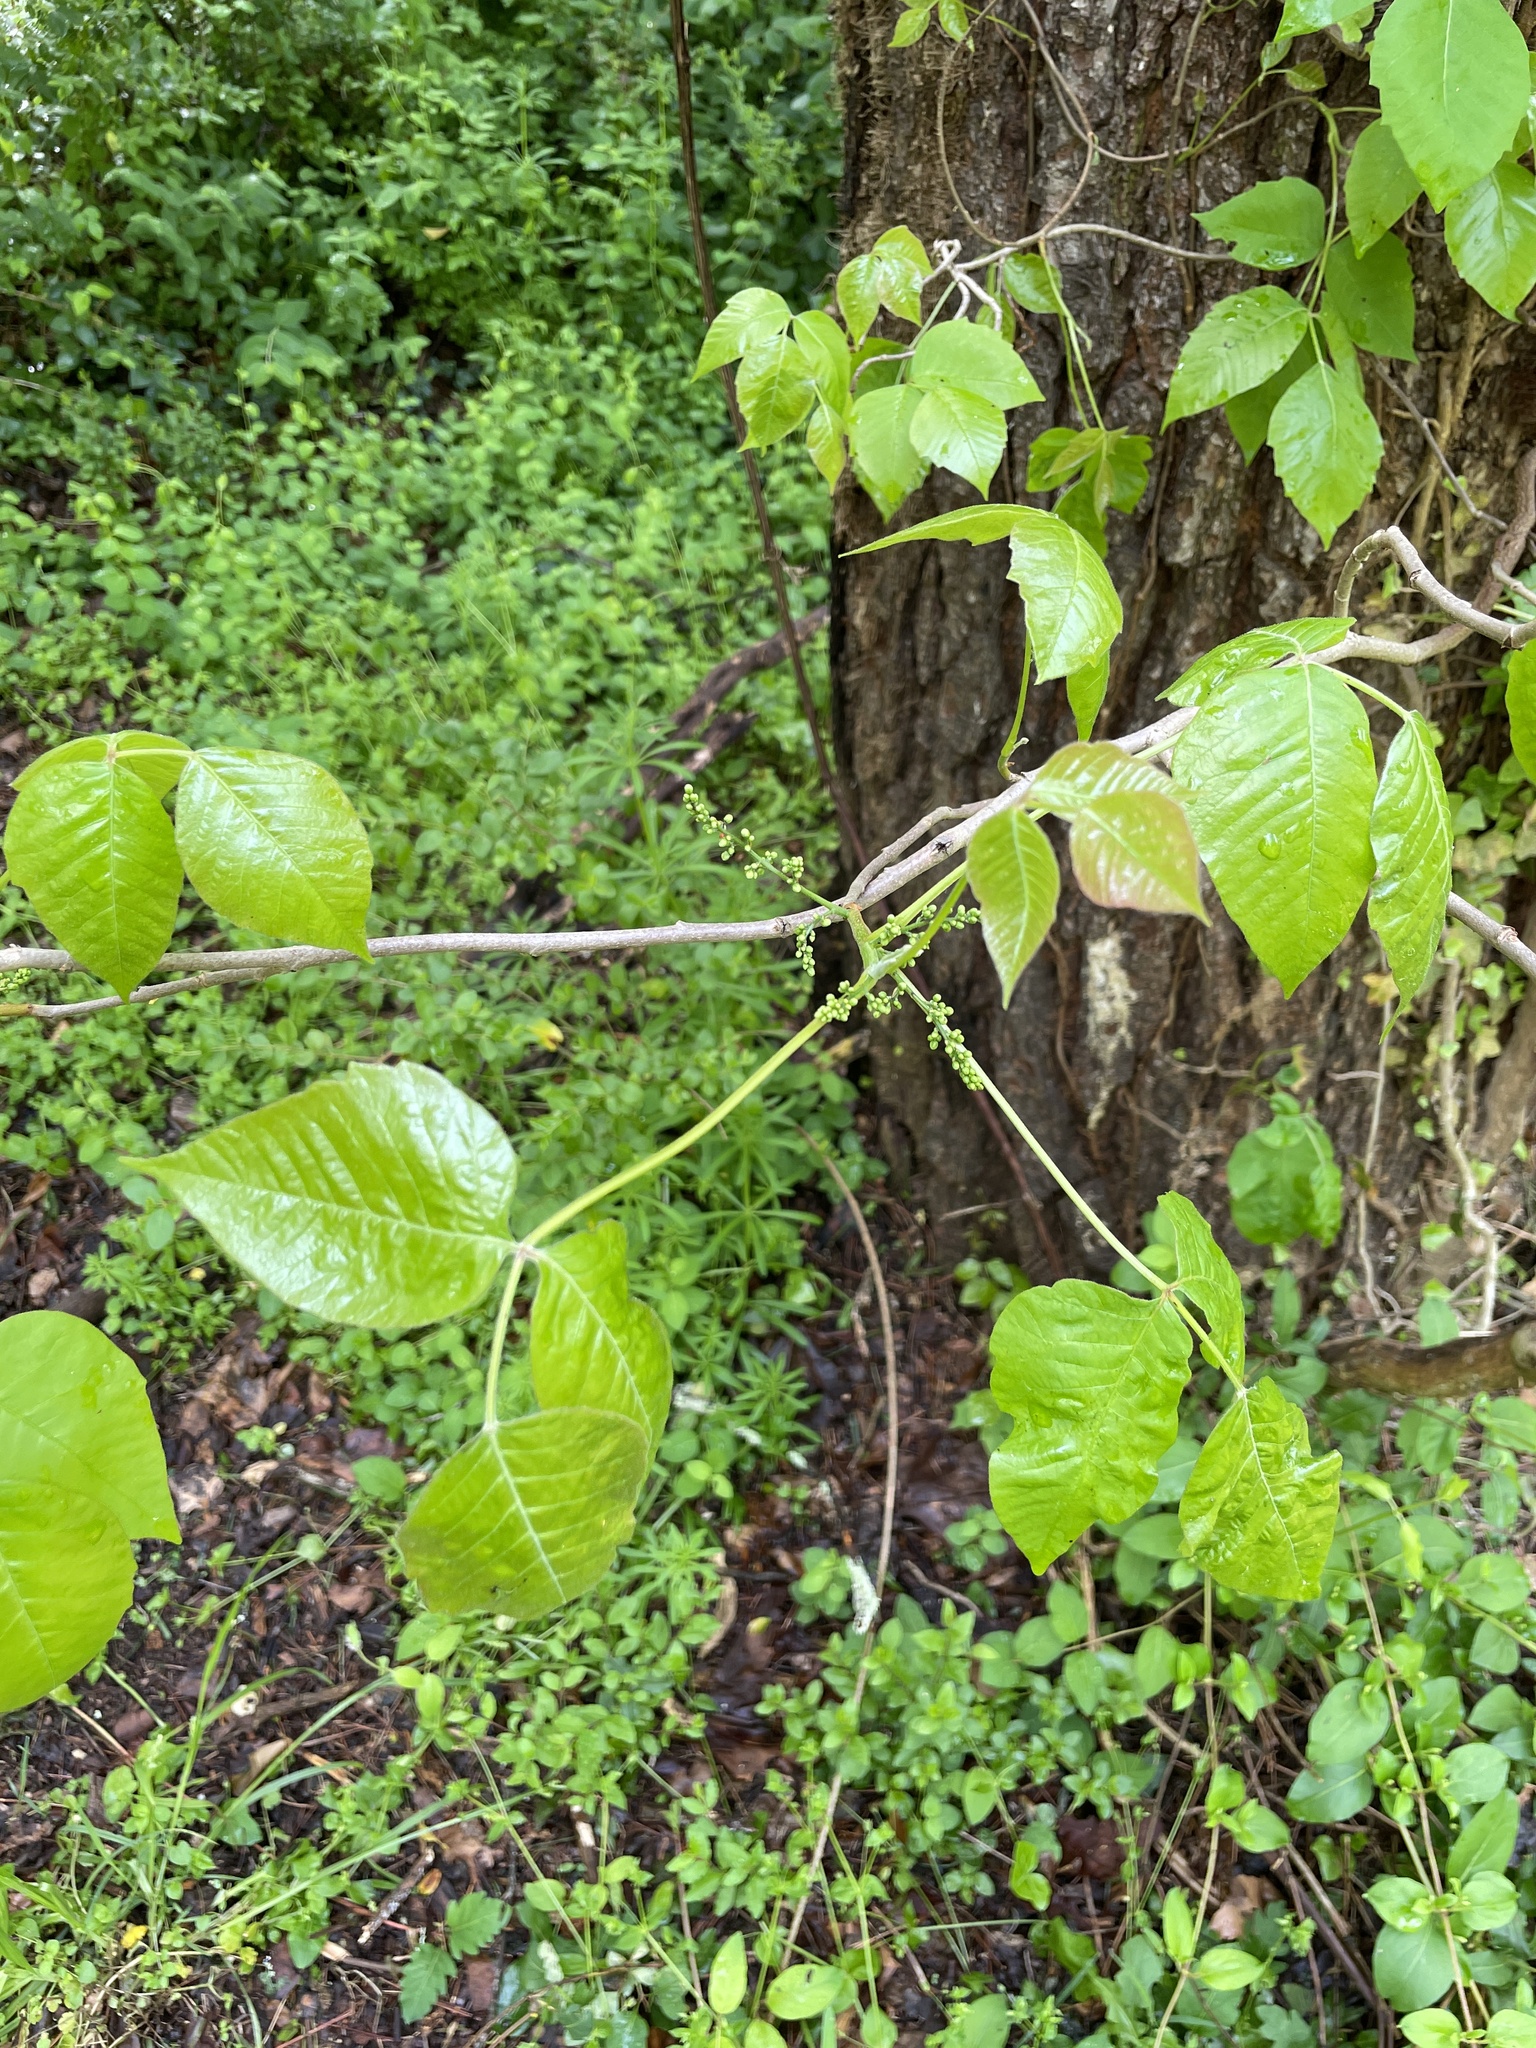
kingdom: Plantae
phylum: Tracheophyta
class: Magnoliopsida
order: Sapindales
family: Anacardiaceae
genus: Toxicodendron
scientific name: Toxicodendron radicans
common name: Poison ivy
